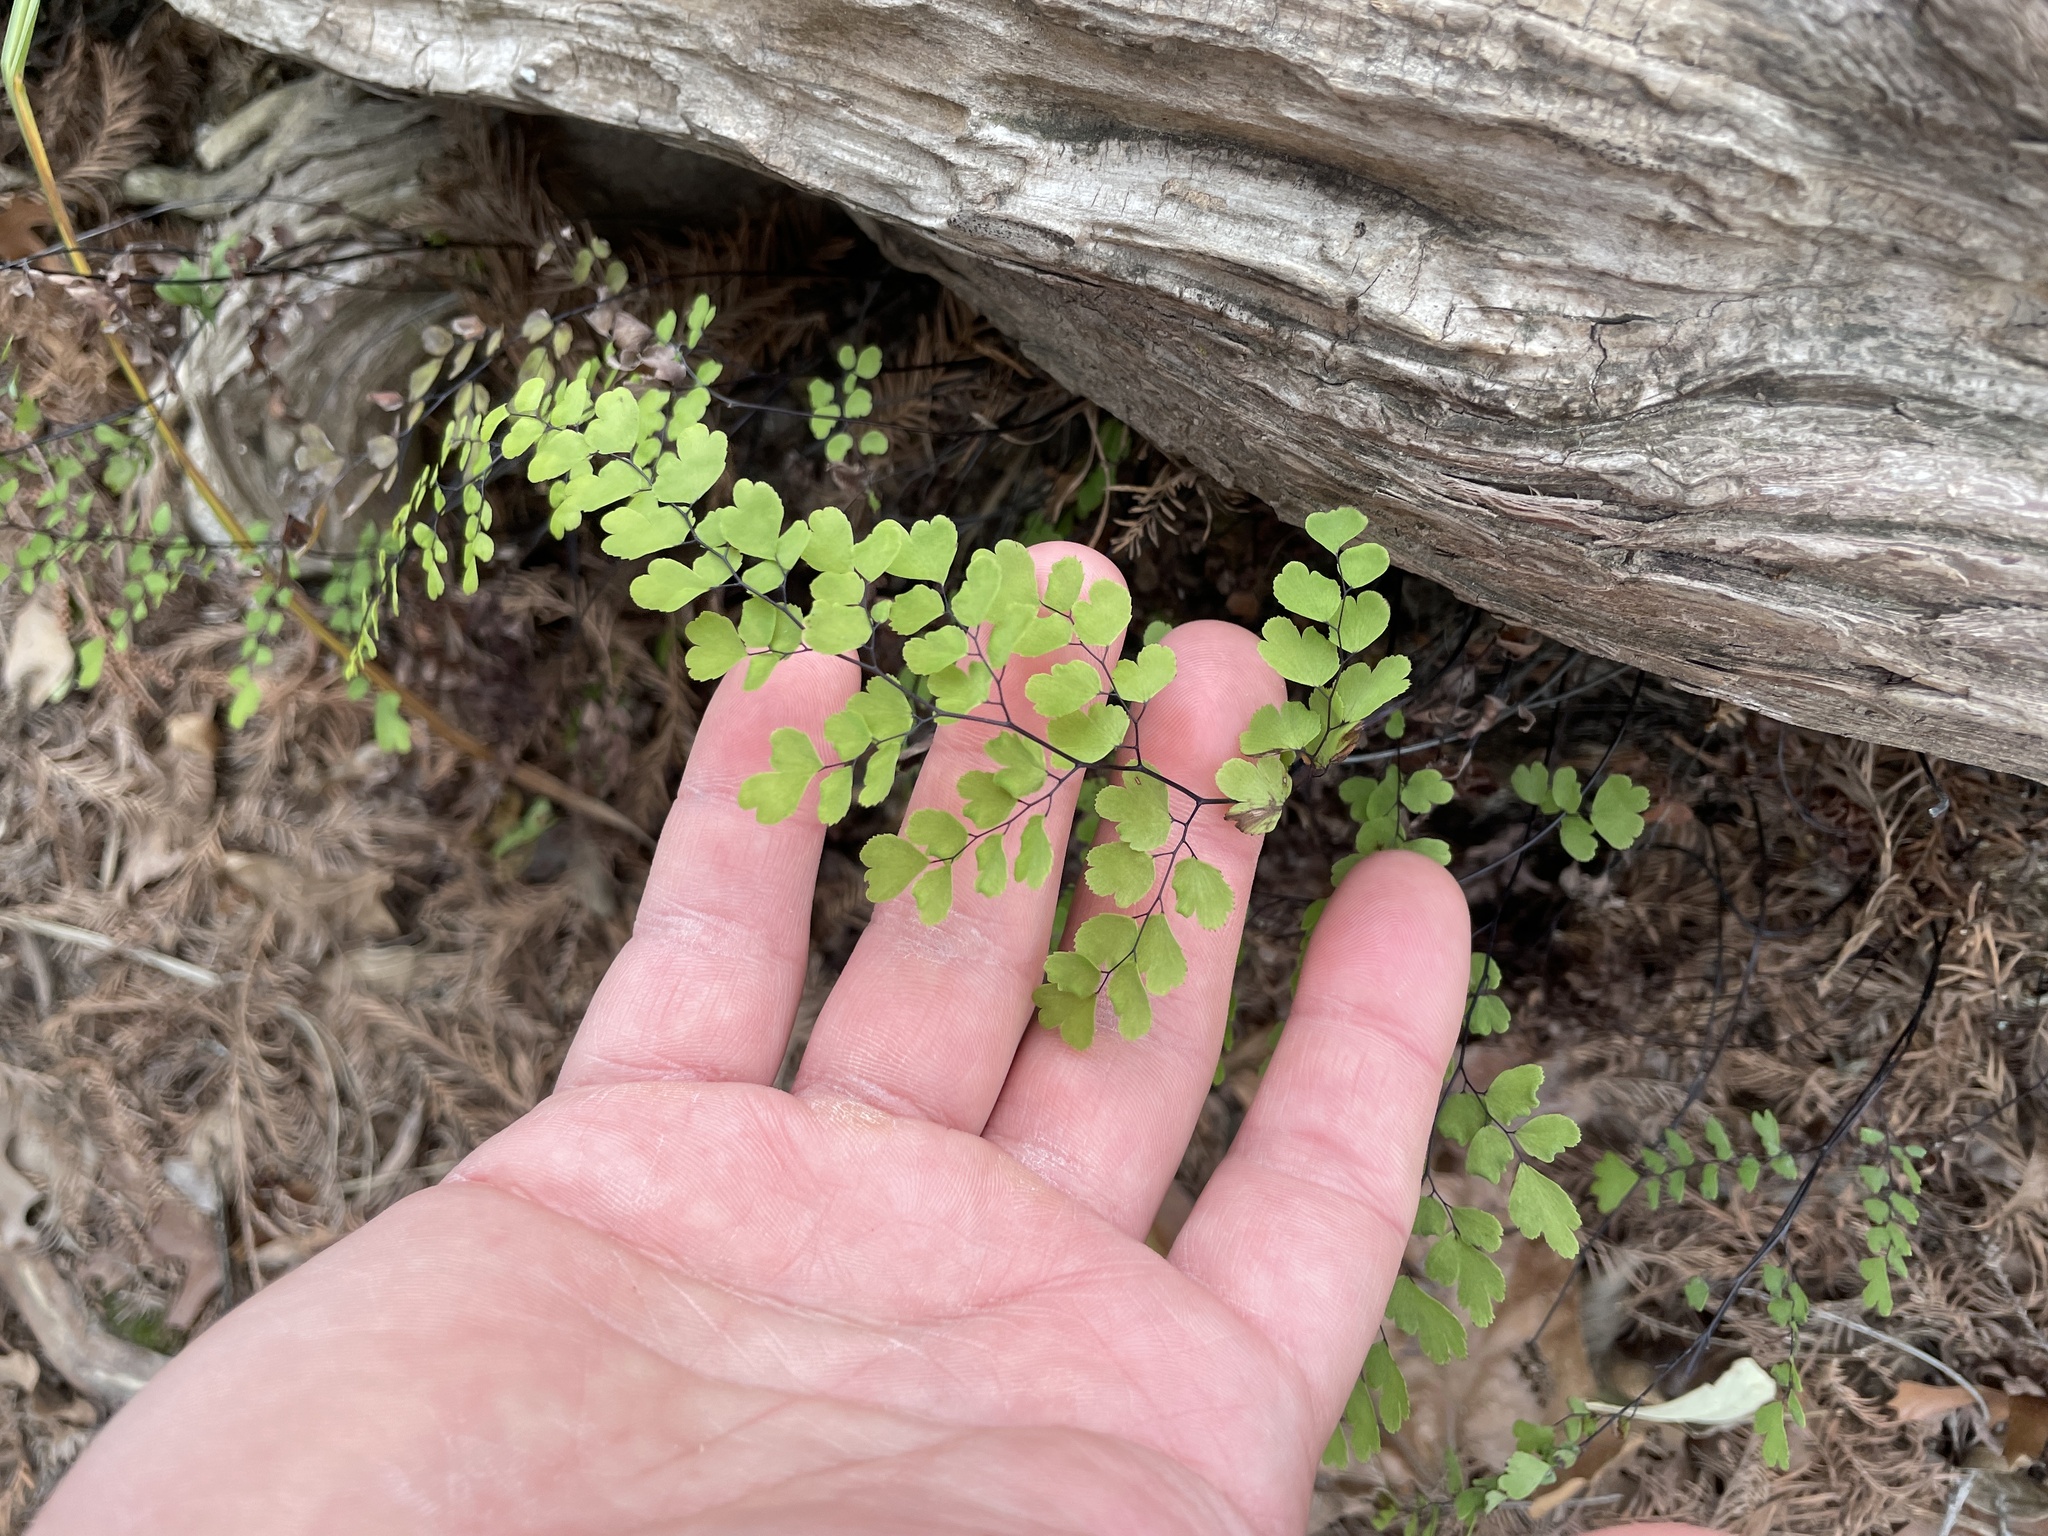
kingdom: Plantae
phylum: Tracheophyta
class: Polypodiopsida
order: Polypodiales
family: Pteridaceae
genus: Adiantum
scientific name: Adiantum capillus-veneris
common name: Maidenhair fern
